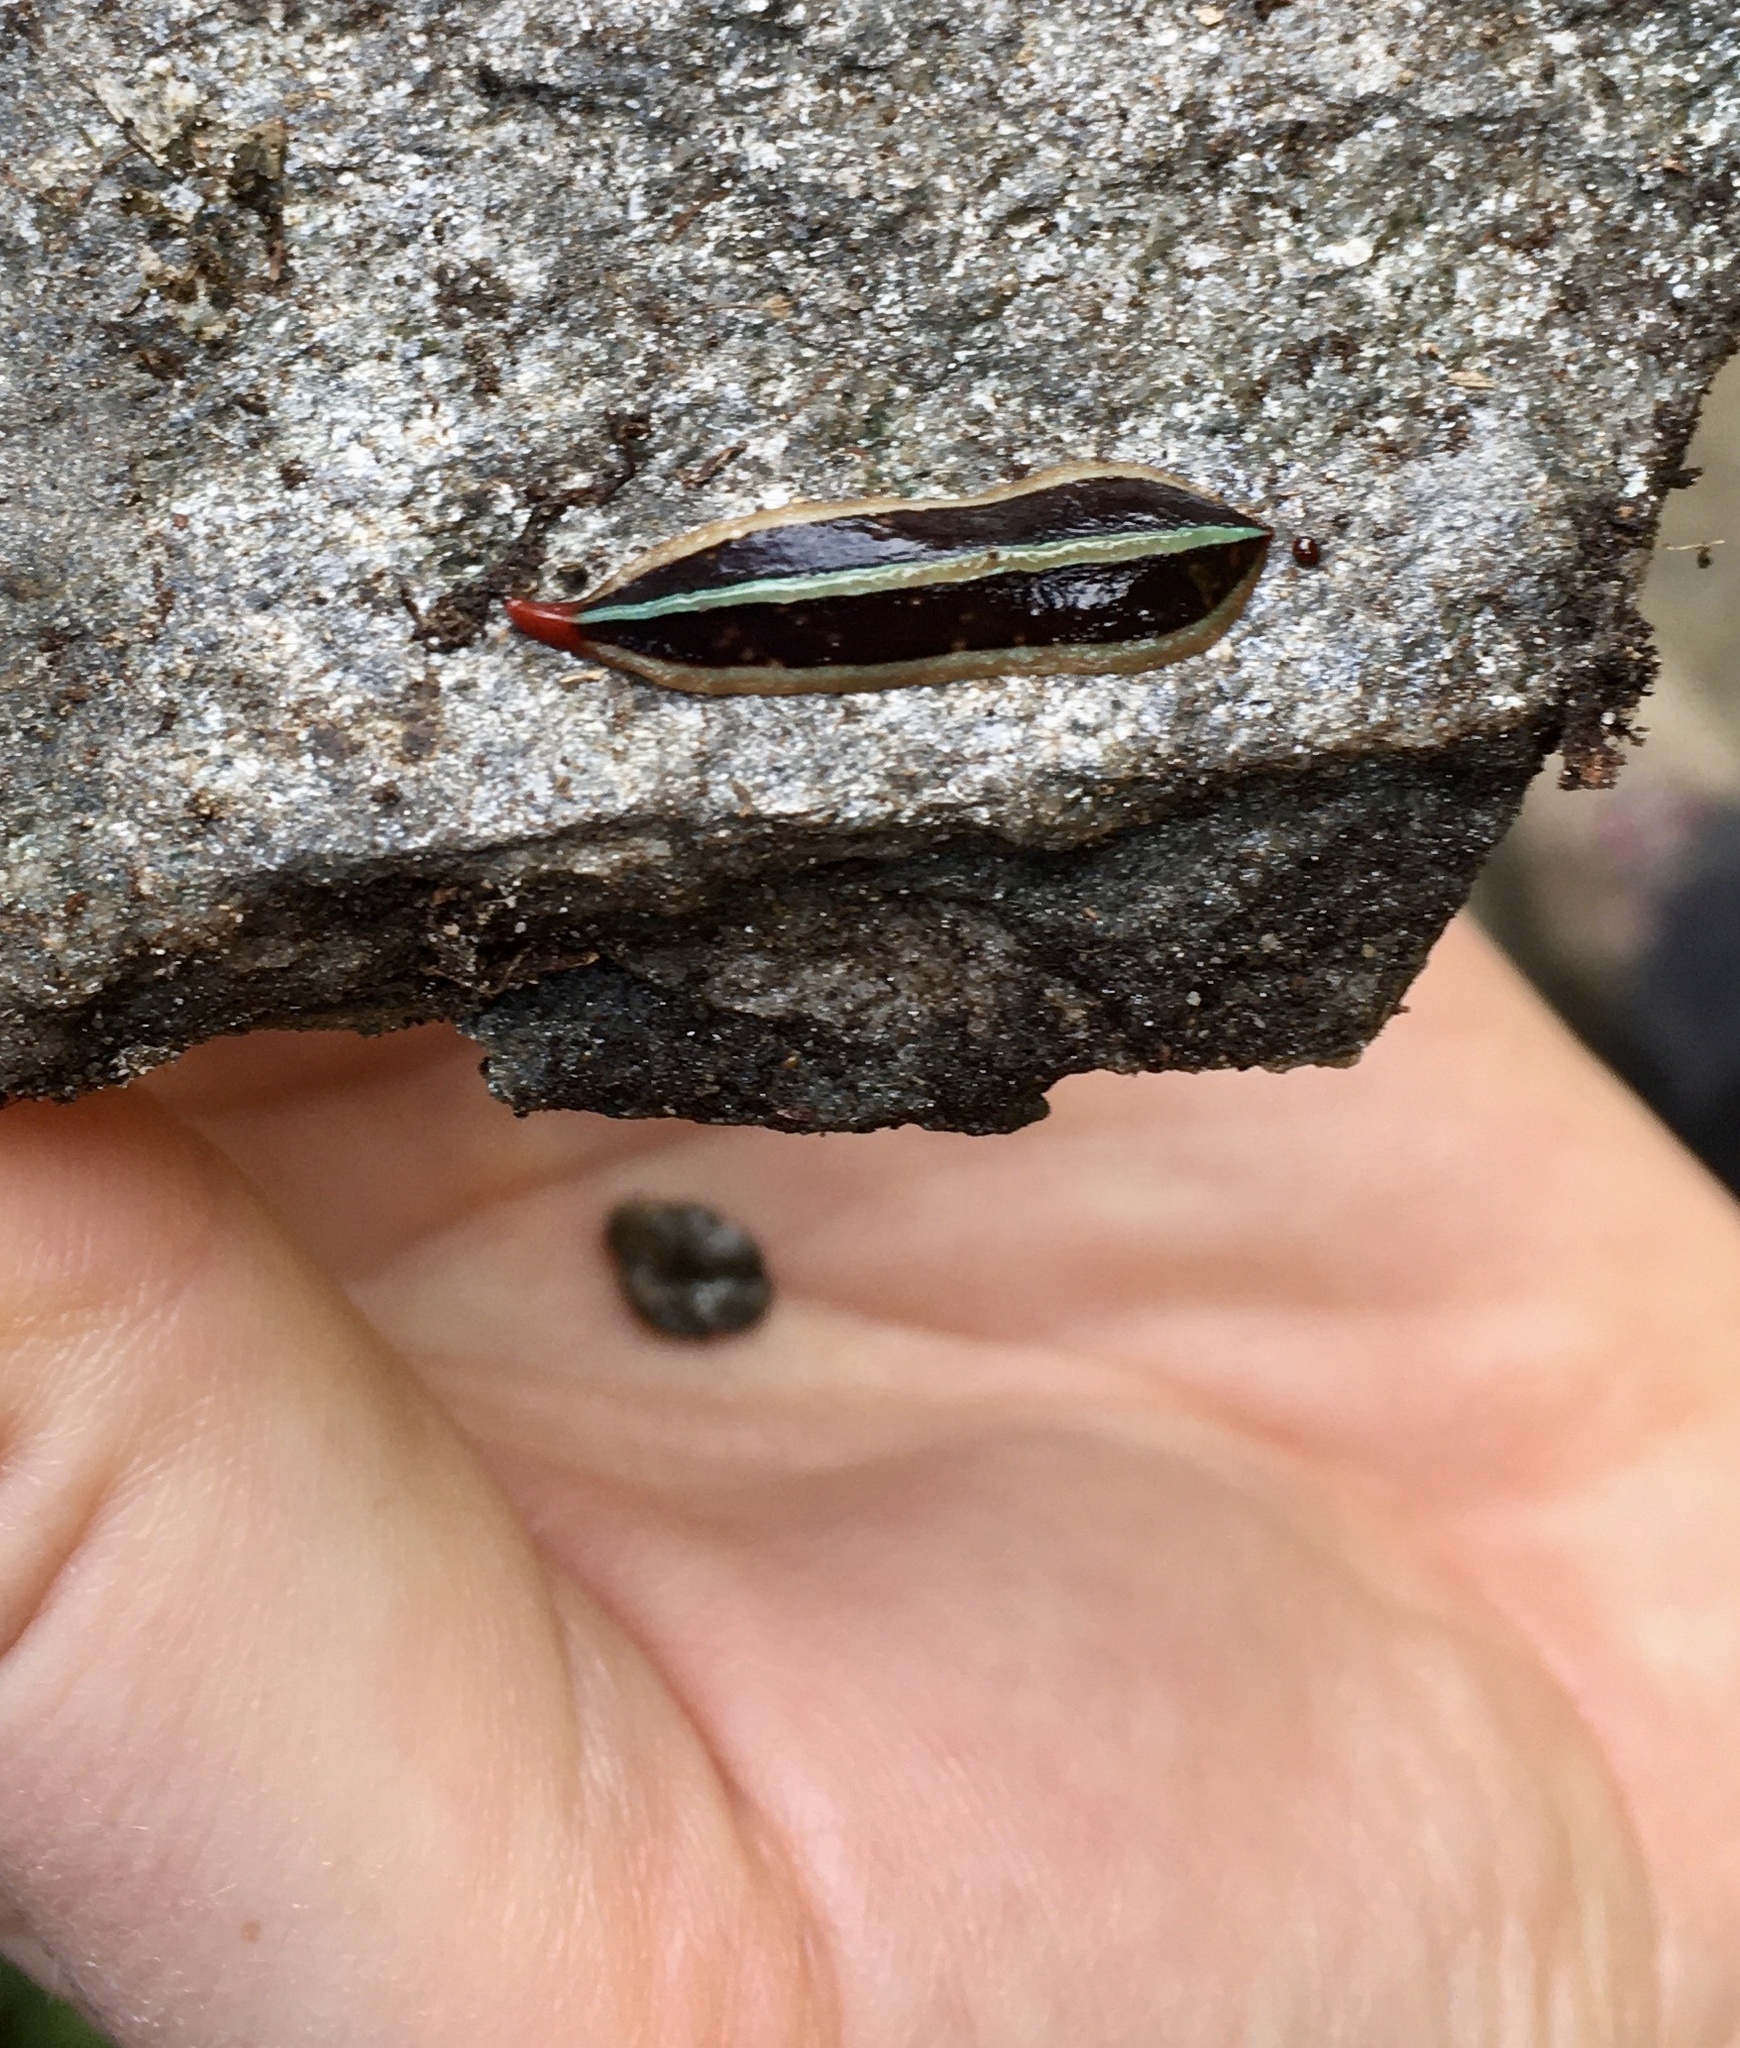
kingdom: Animalia
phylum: Platyhelminthes
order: Tricladida
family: Geoplanidae
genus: Newzealandia
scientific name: Newzealandia graffii
